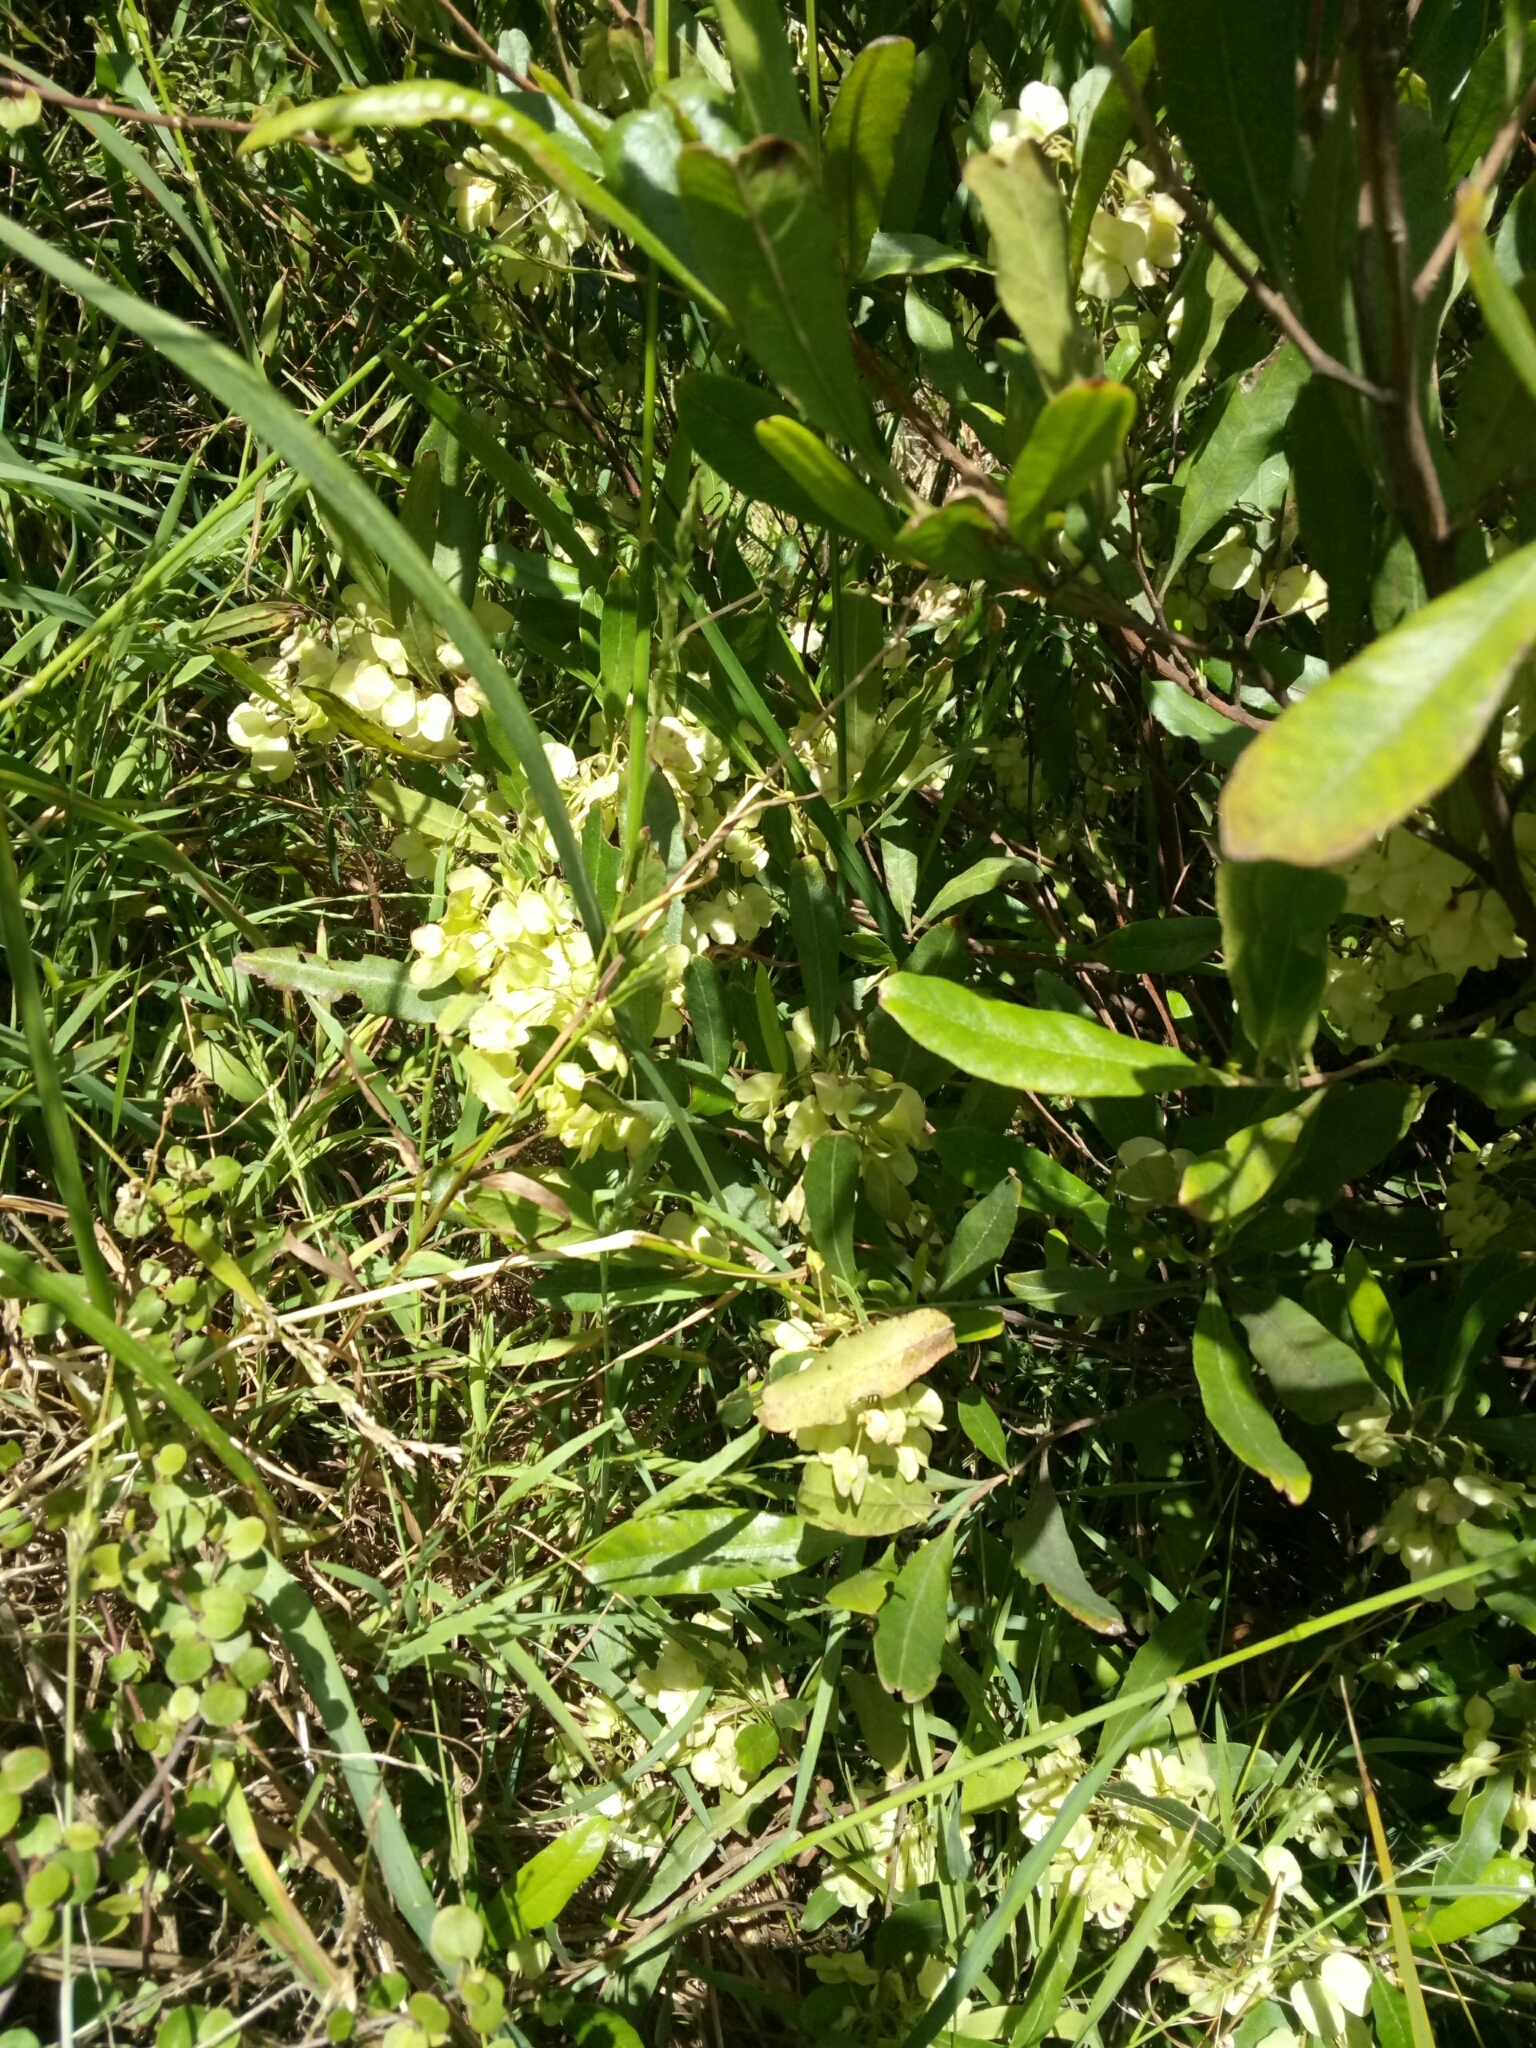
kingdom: Plantae
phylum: Tracheophyta
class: Magnoliopsida
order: Sapindales
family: Sapindaceae
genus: Dodonaea
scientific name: Dodonaea viscosa
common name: Hopbush
